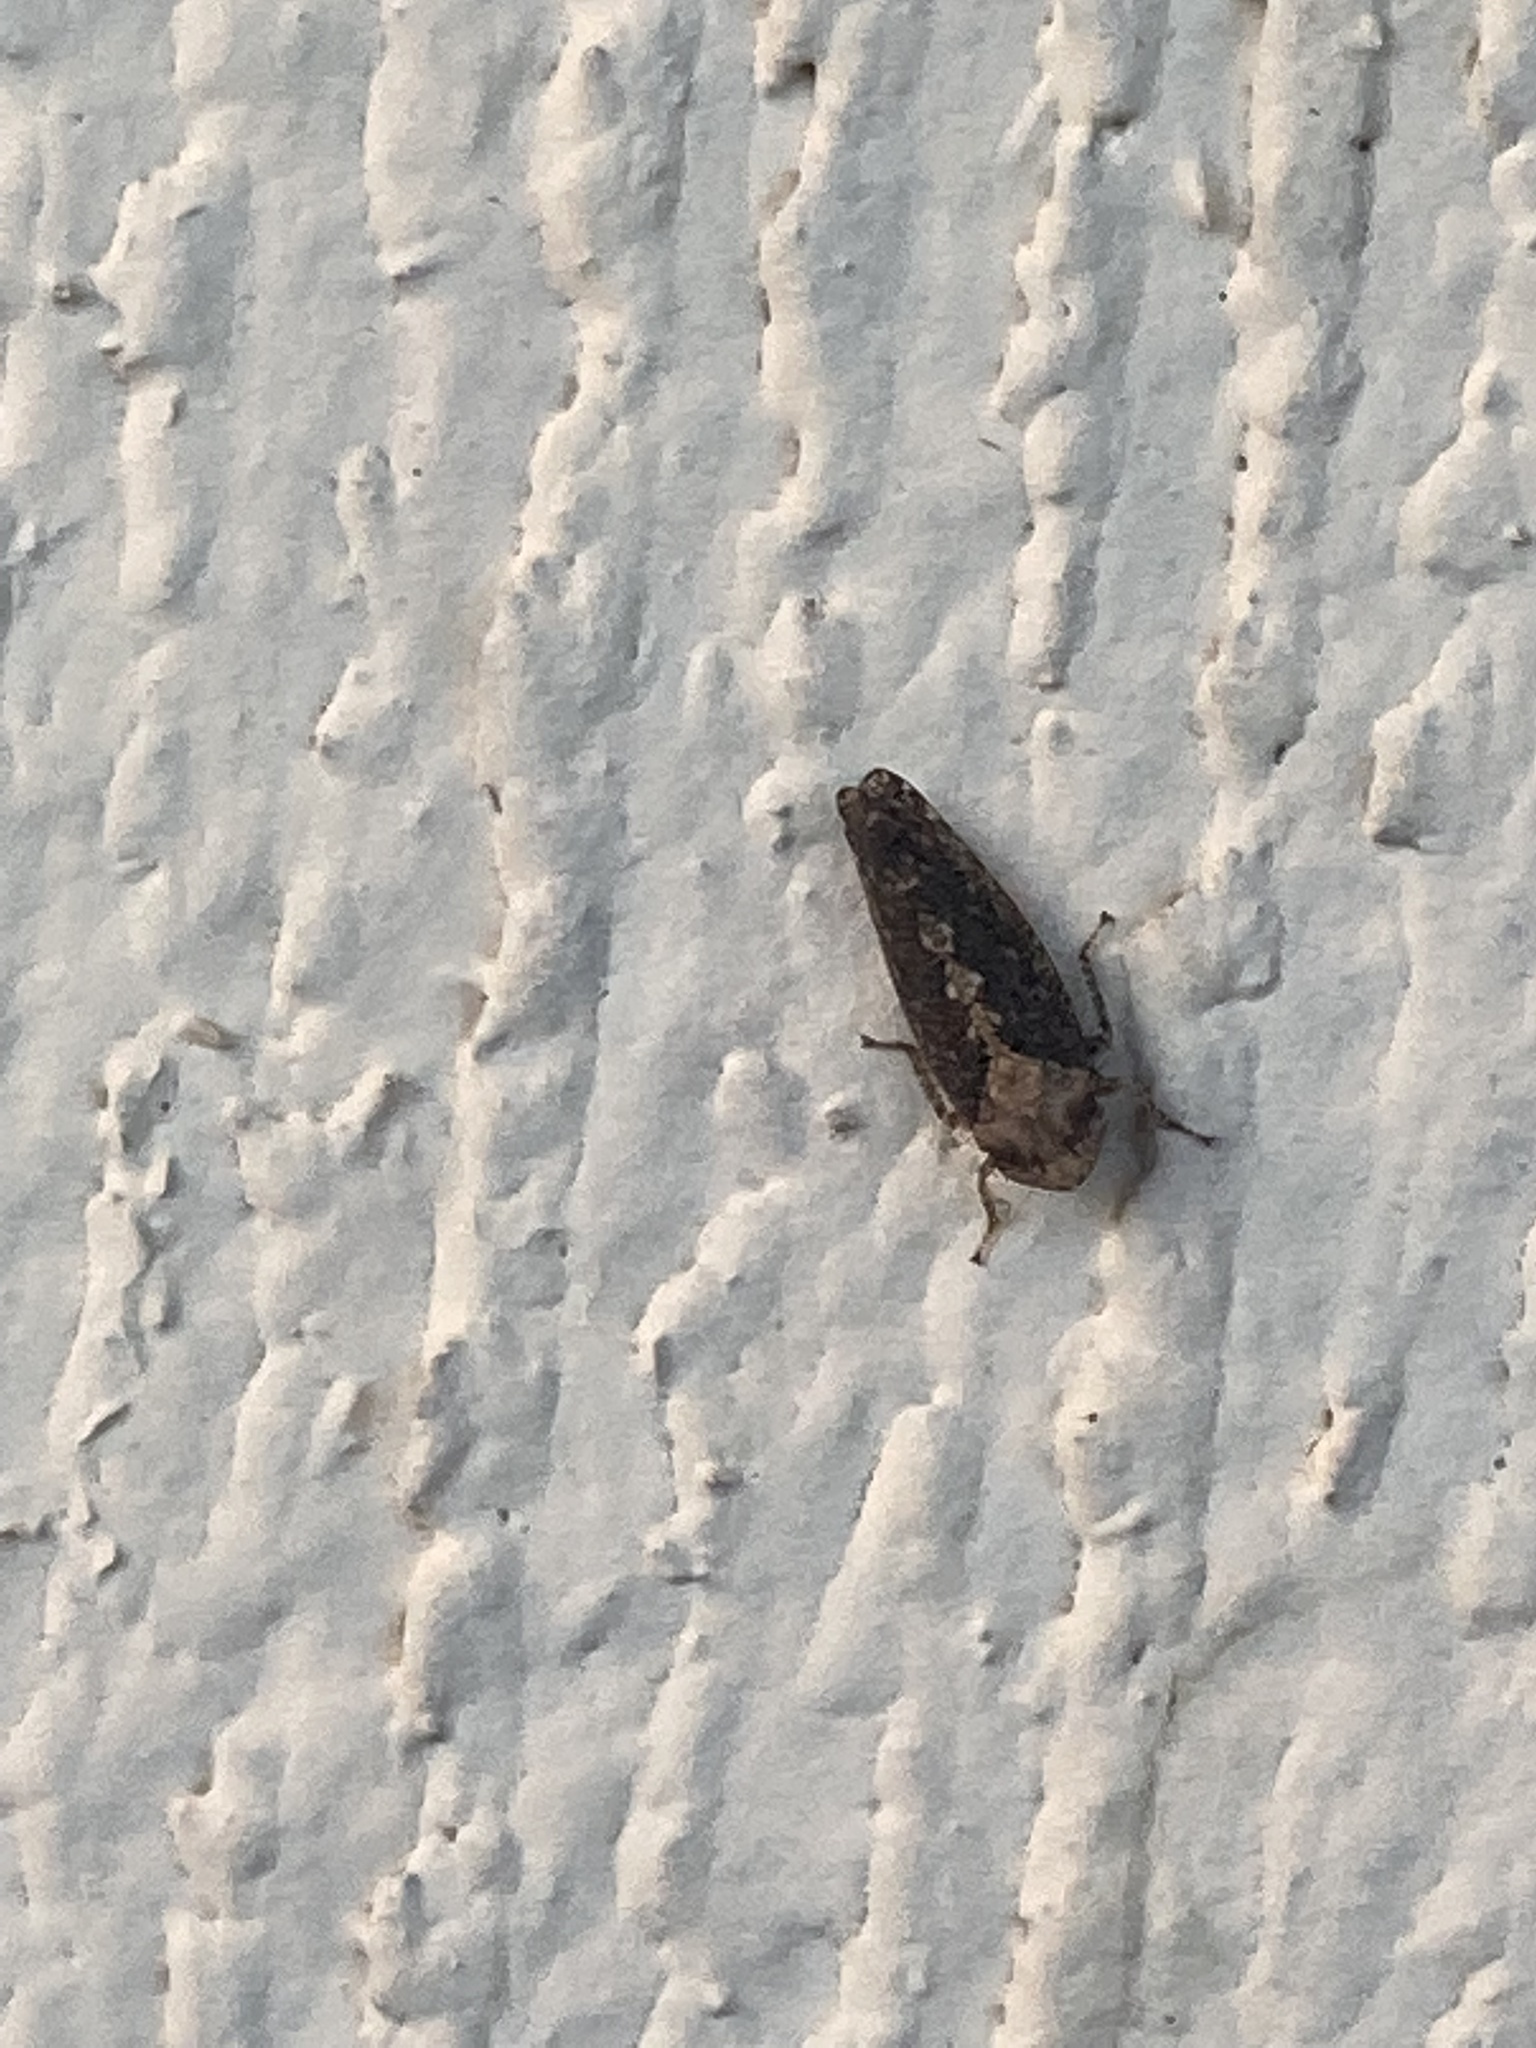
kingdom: Animalia
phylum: Arthropoda
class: Insecta
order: Hemiptera
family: Cicadellidae
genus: Excultanus
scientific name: Excultanus excultus
